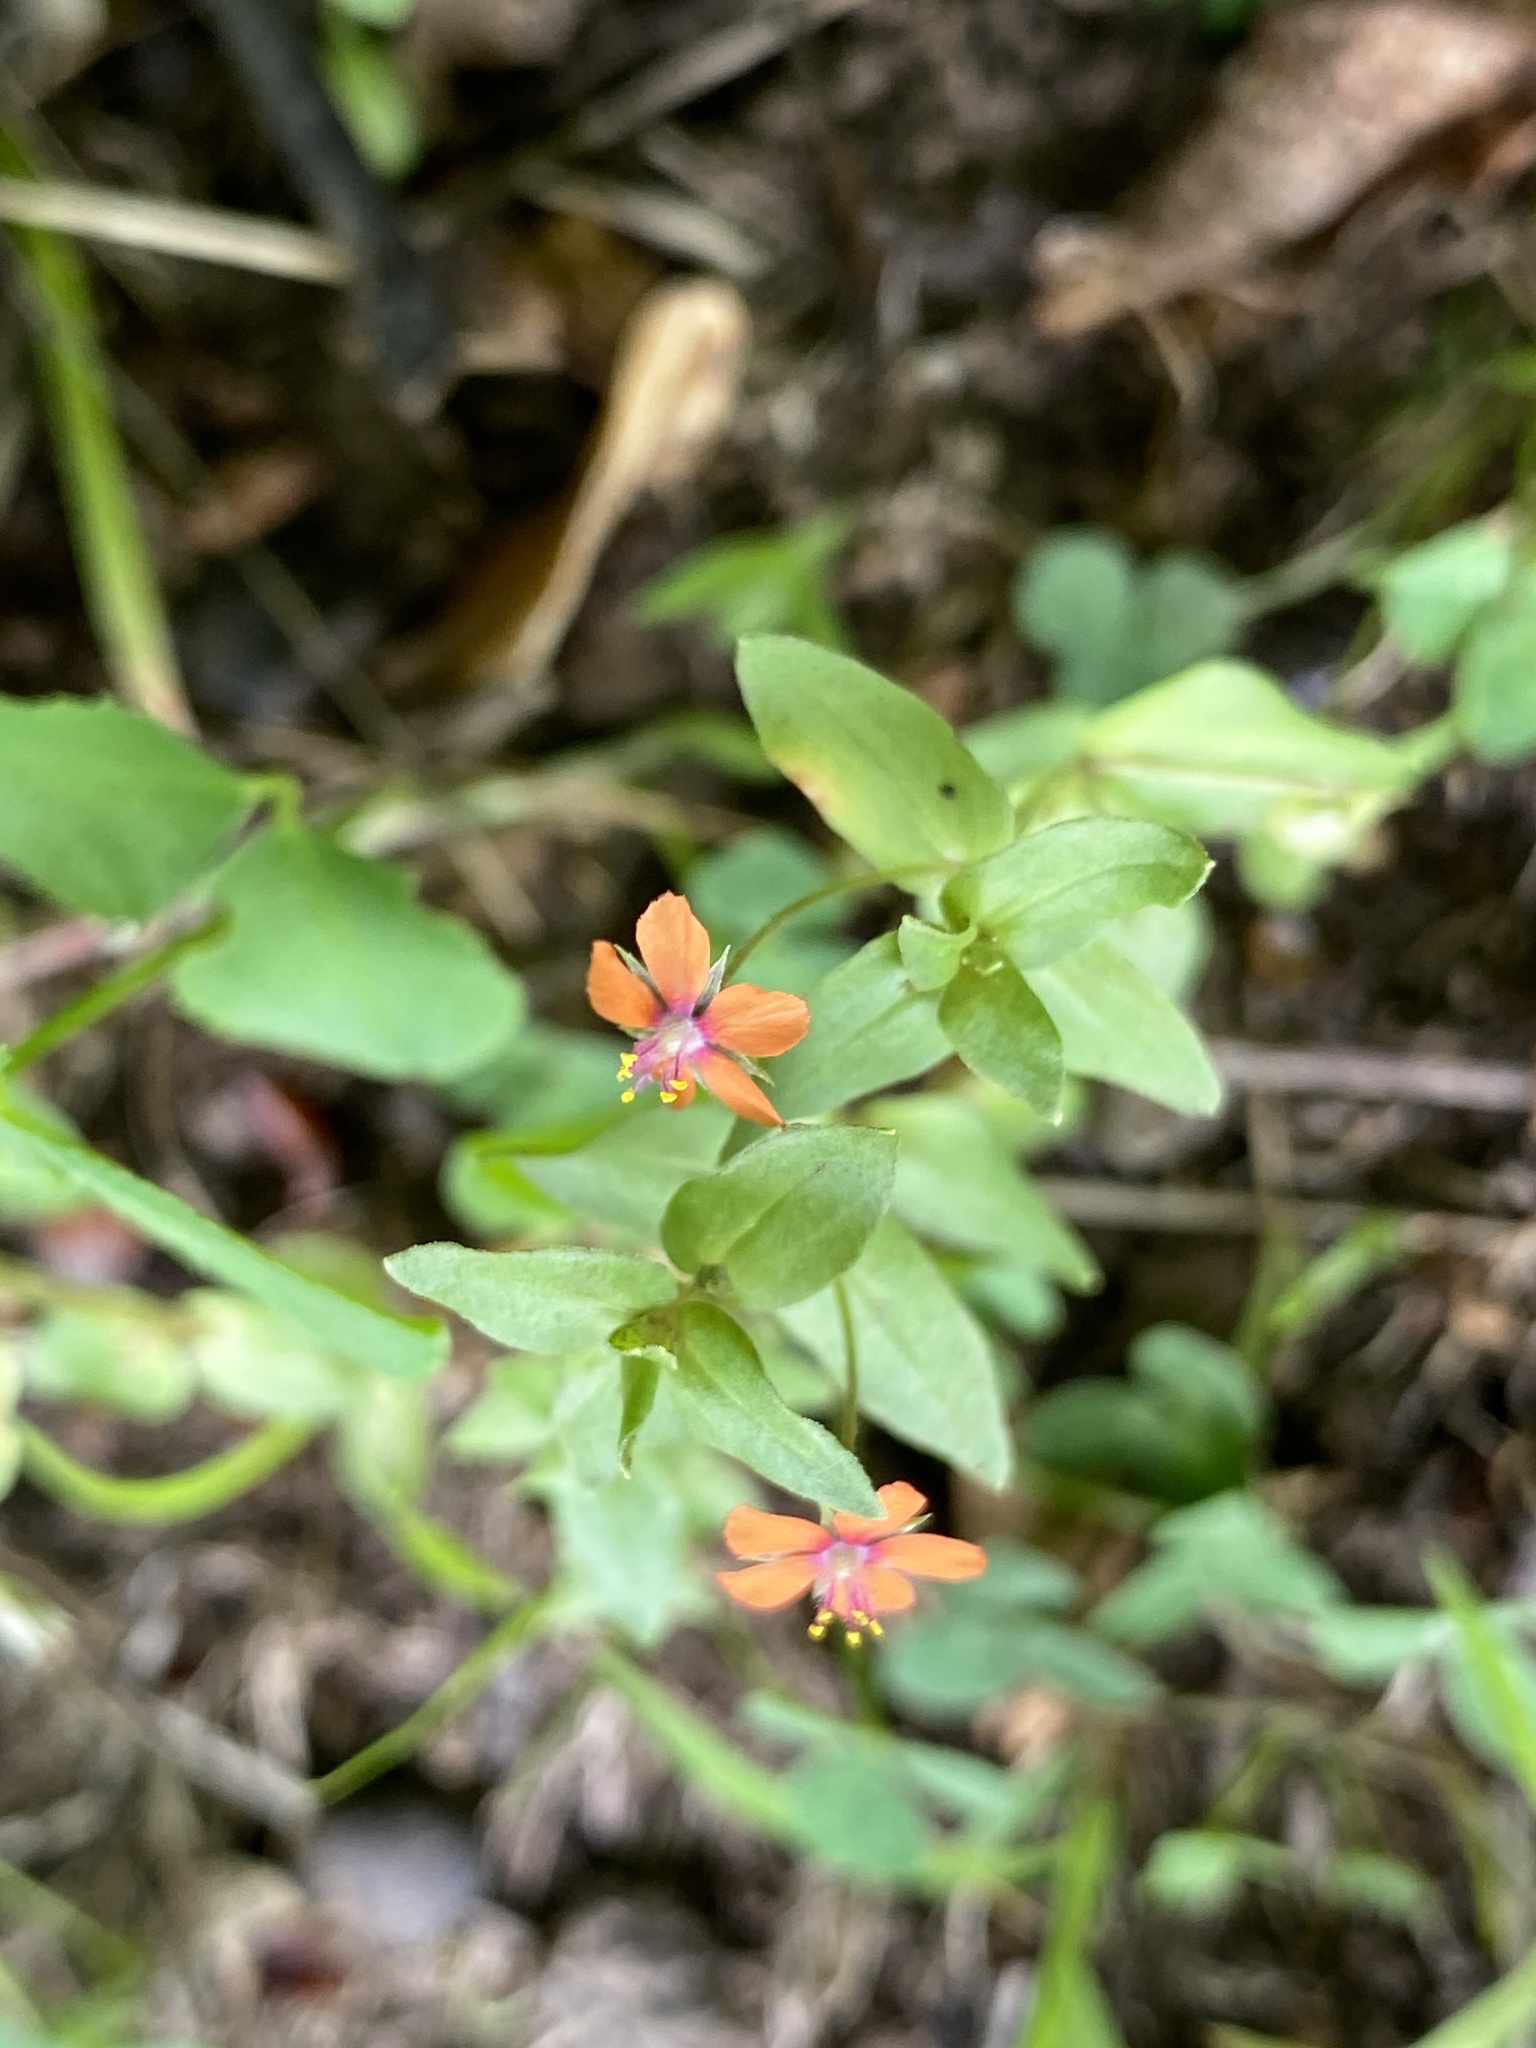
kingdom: Plantae
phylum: Tracheophyta
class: Magnoliopsida
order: Ericales
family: Primulaceae
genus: Lysimachia
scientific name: Lysimachia arvensis
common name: Scarlet pimpernel
